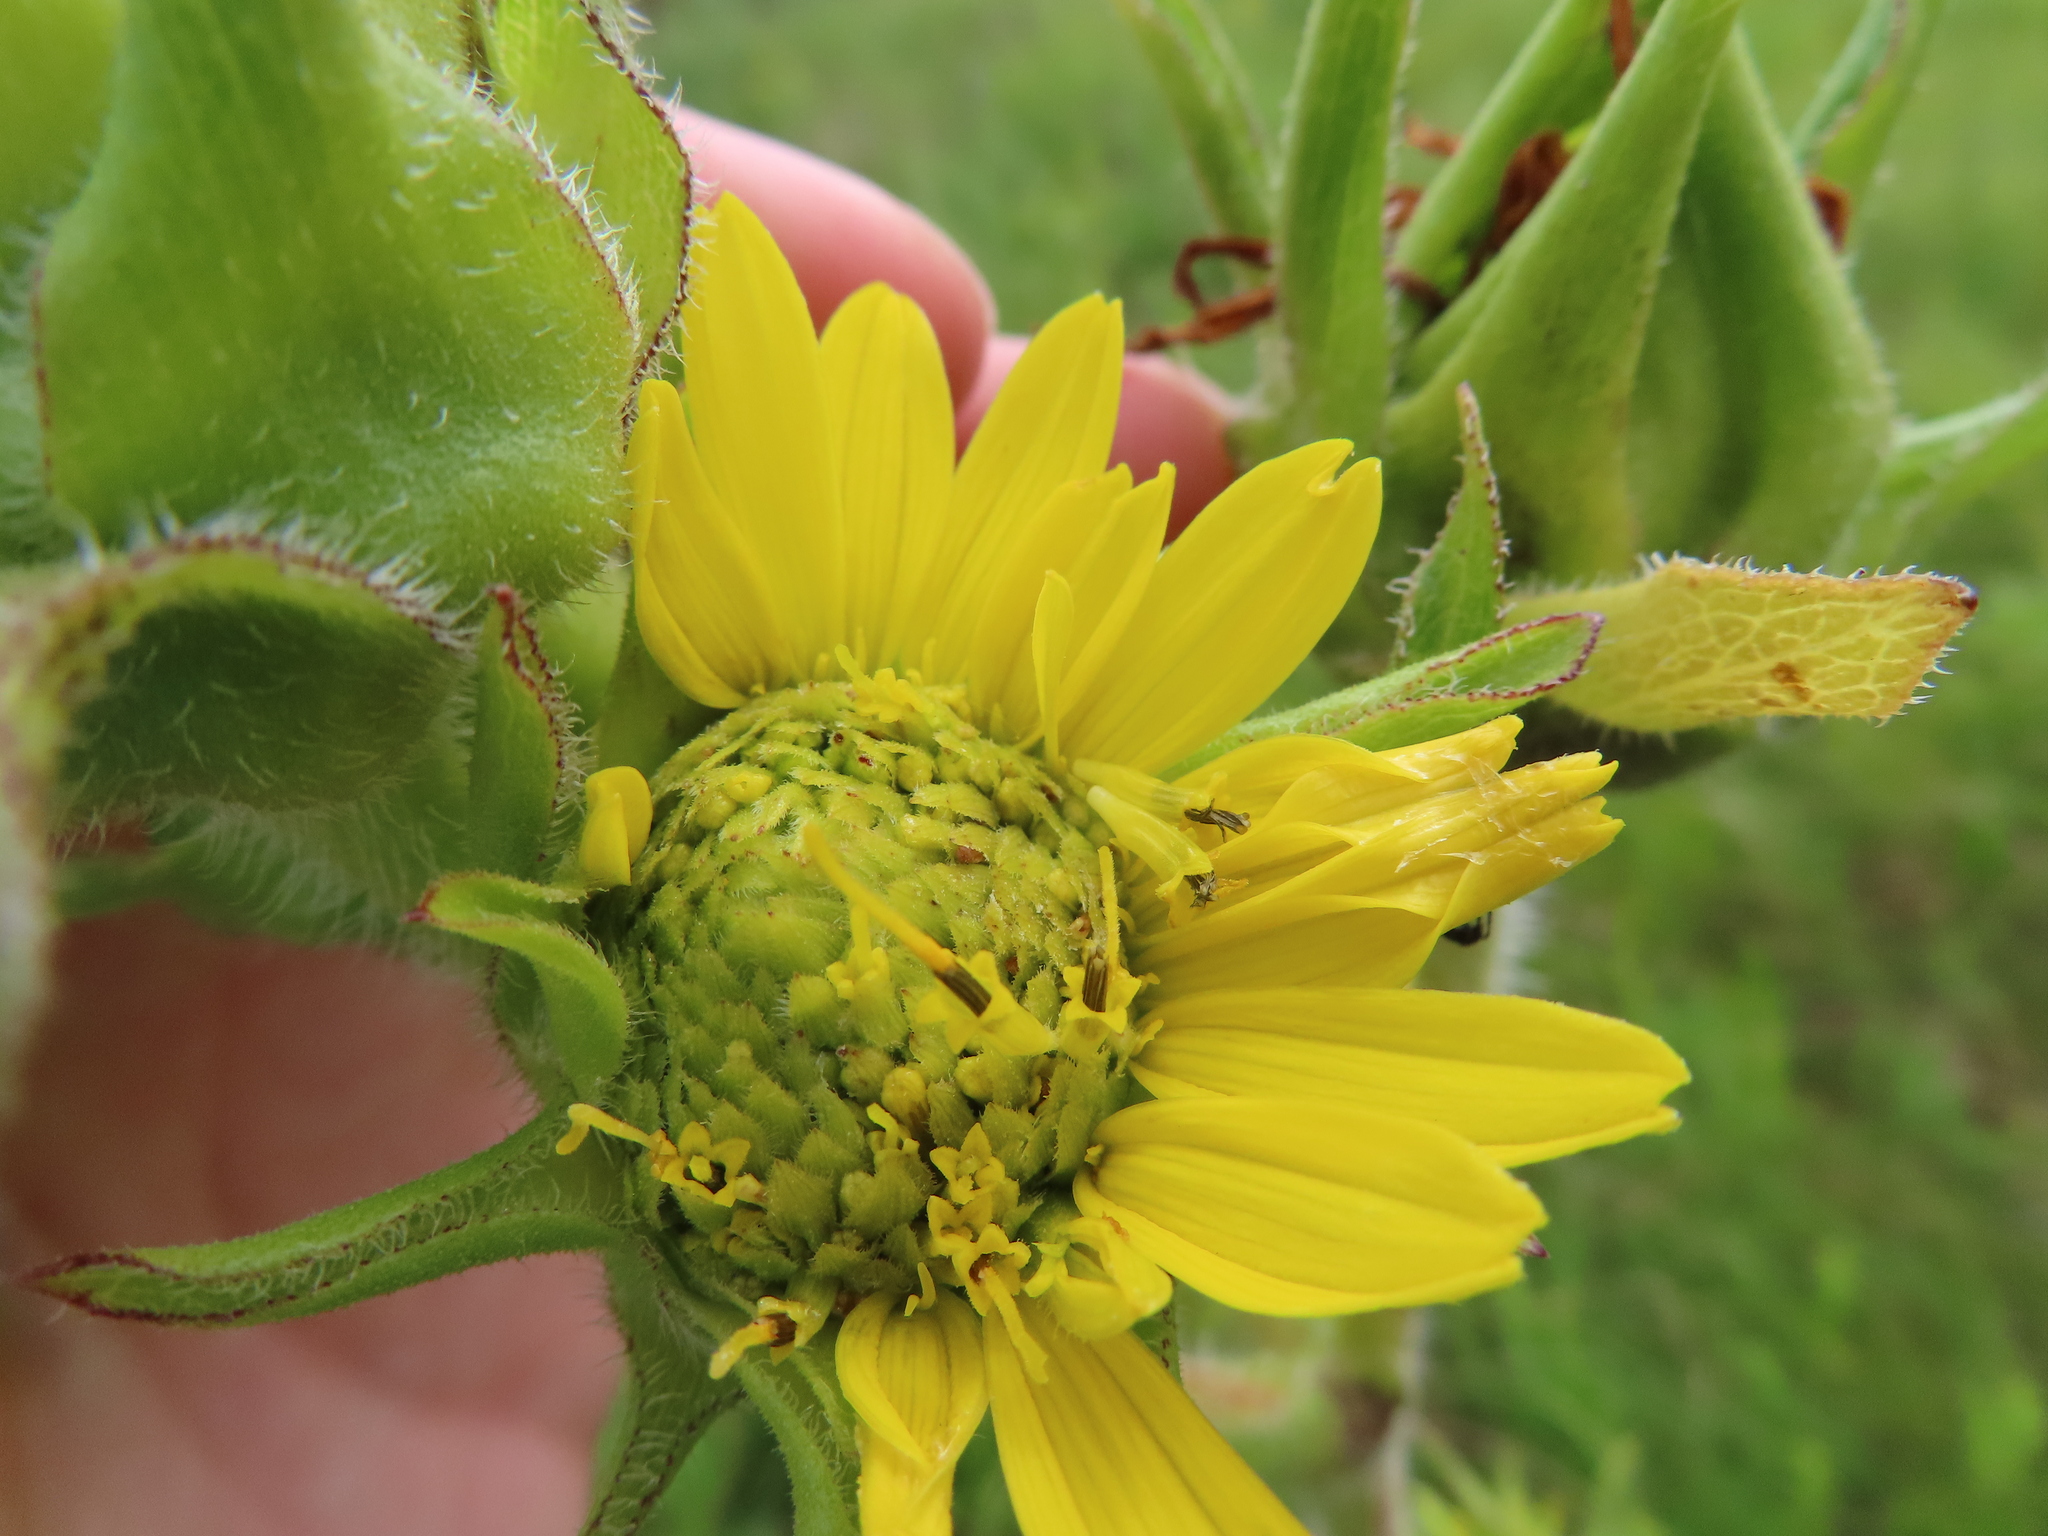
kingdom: Plantae
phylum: Tracheophyta
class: Magnoliopsida
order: Asterales
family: Asteraceae
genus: Silphium
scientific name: Silphium laciniatum
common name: Polarplant
